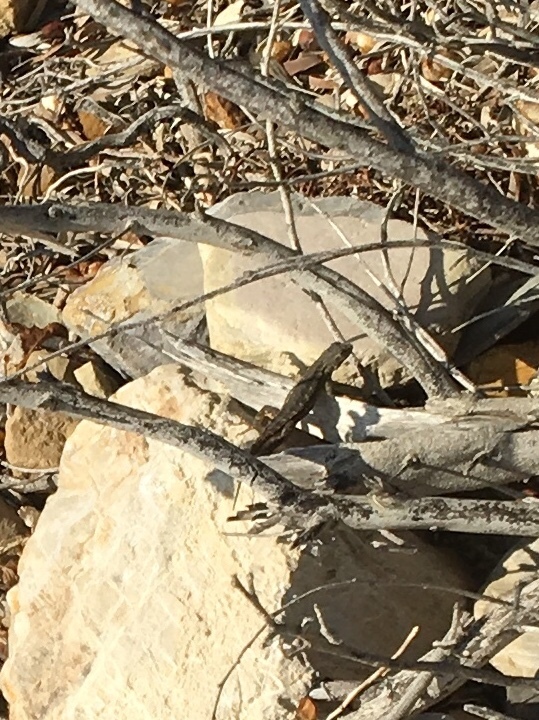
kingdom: Animalia
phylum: Chordata
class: Squamata
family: Phrynosomatidae
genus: Sceloporus
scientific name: Sceloporus occidentalis
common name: Western fence lizard
